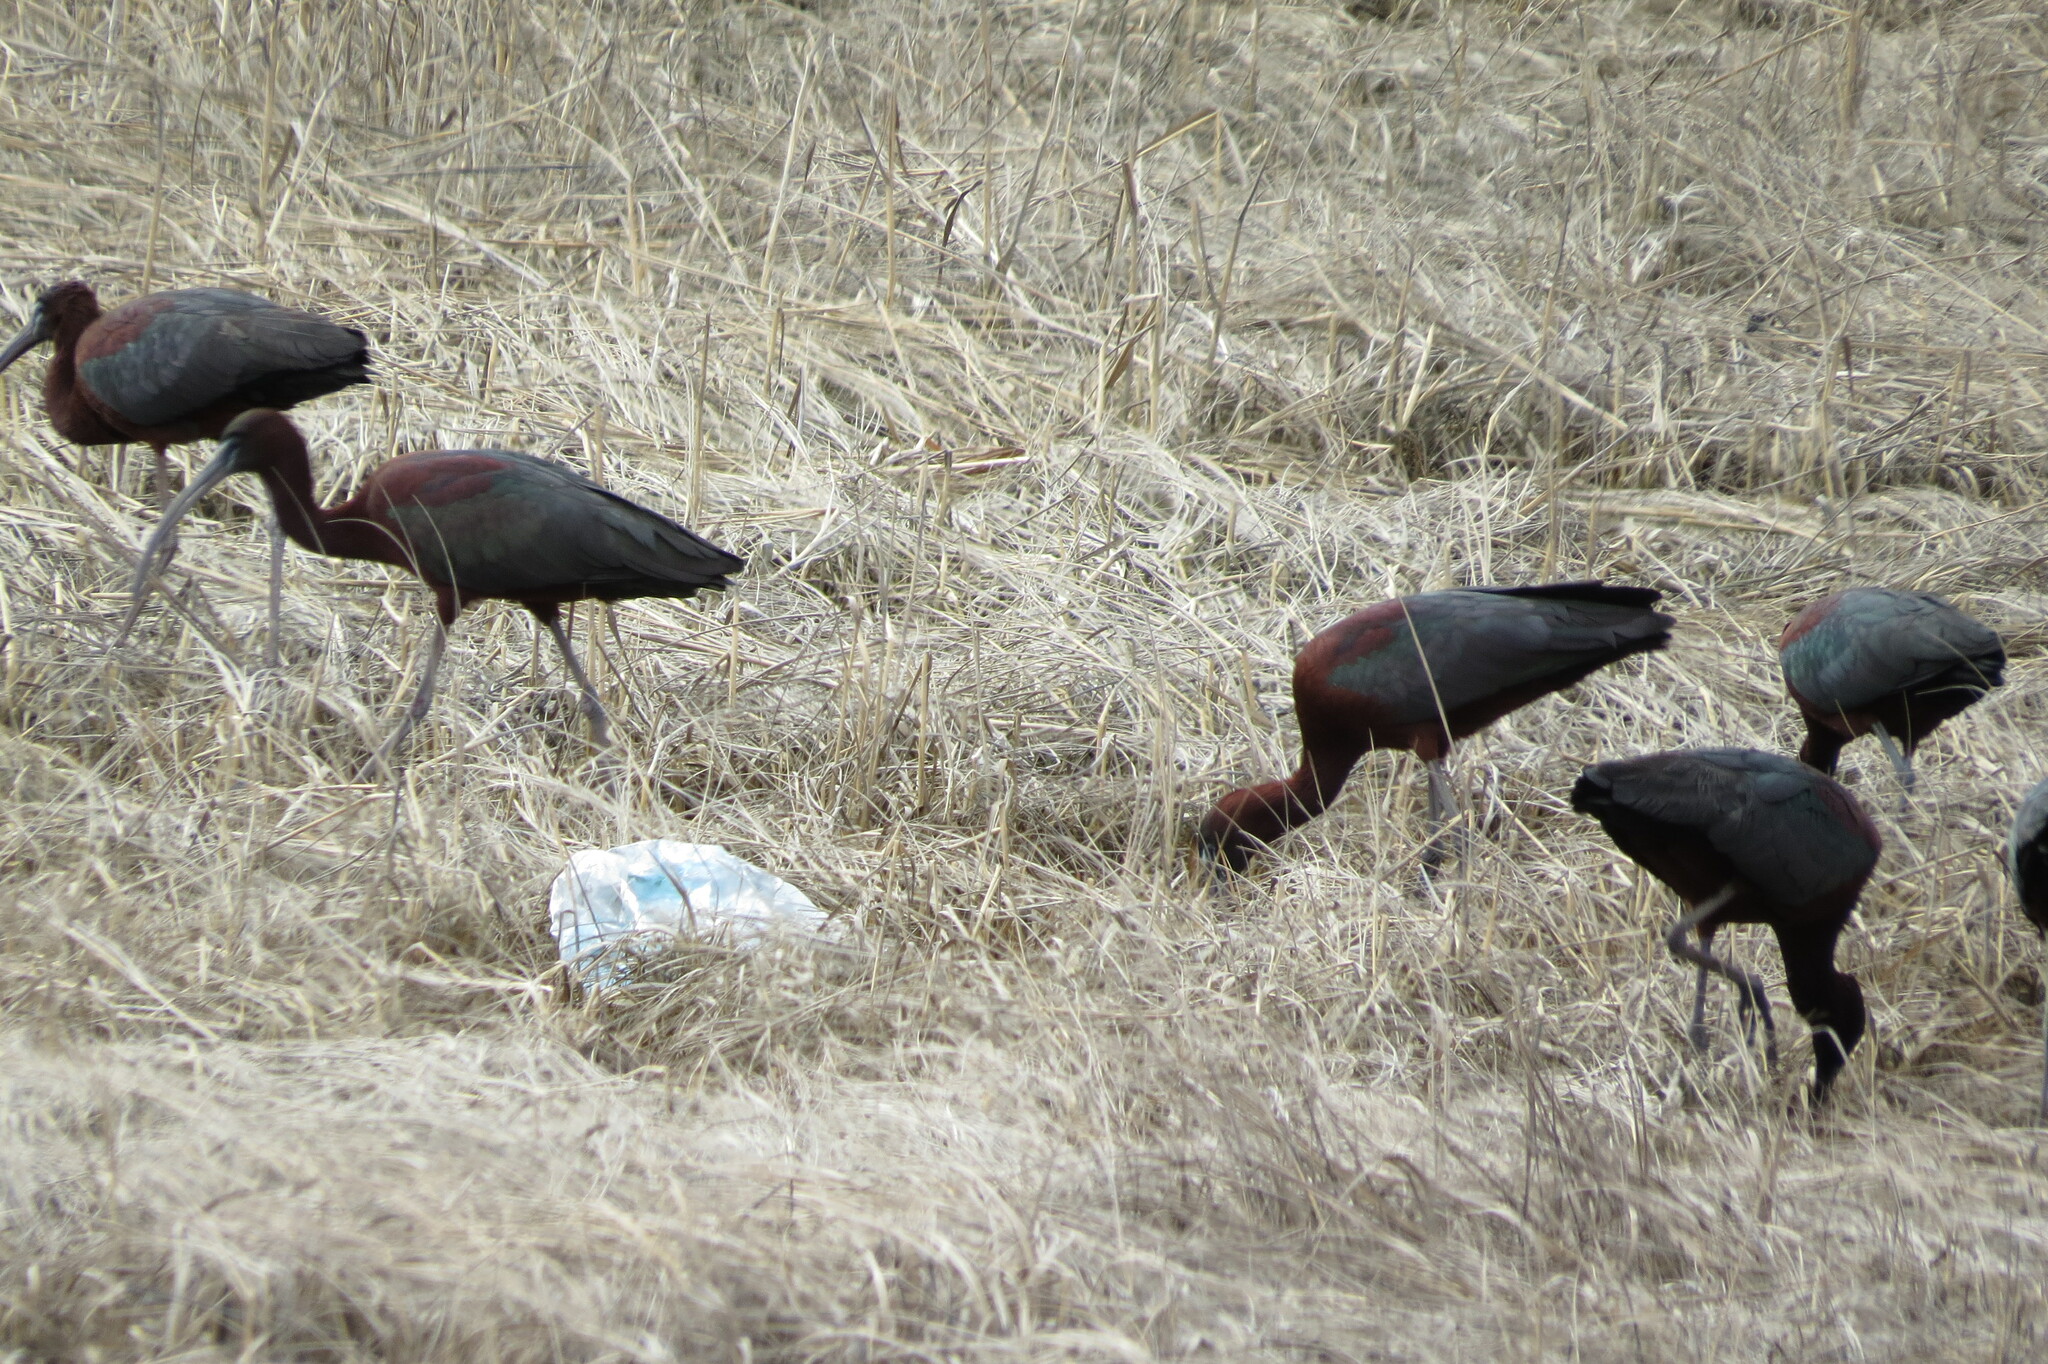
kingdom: Animalia
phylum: Chordata
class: Aves
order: Pelecaniformes
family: Threskiornithidae
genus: Plegadis
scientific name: Plegadis falcinellus
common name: Glossy ibis
